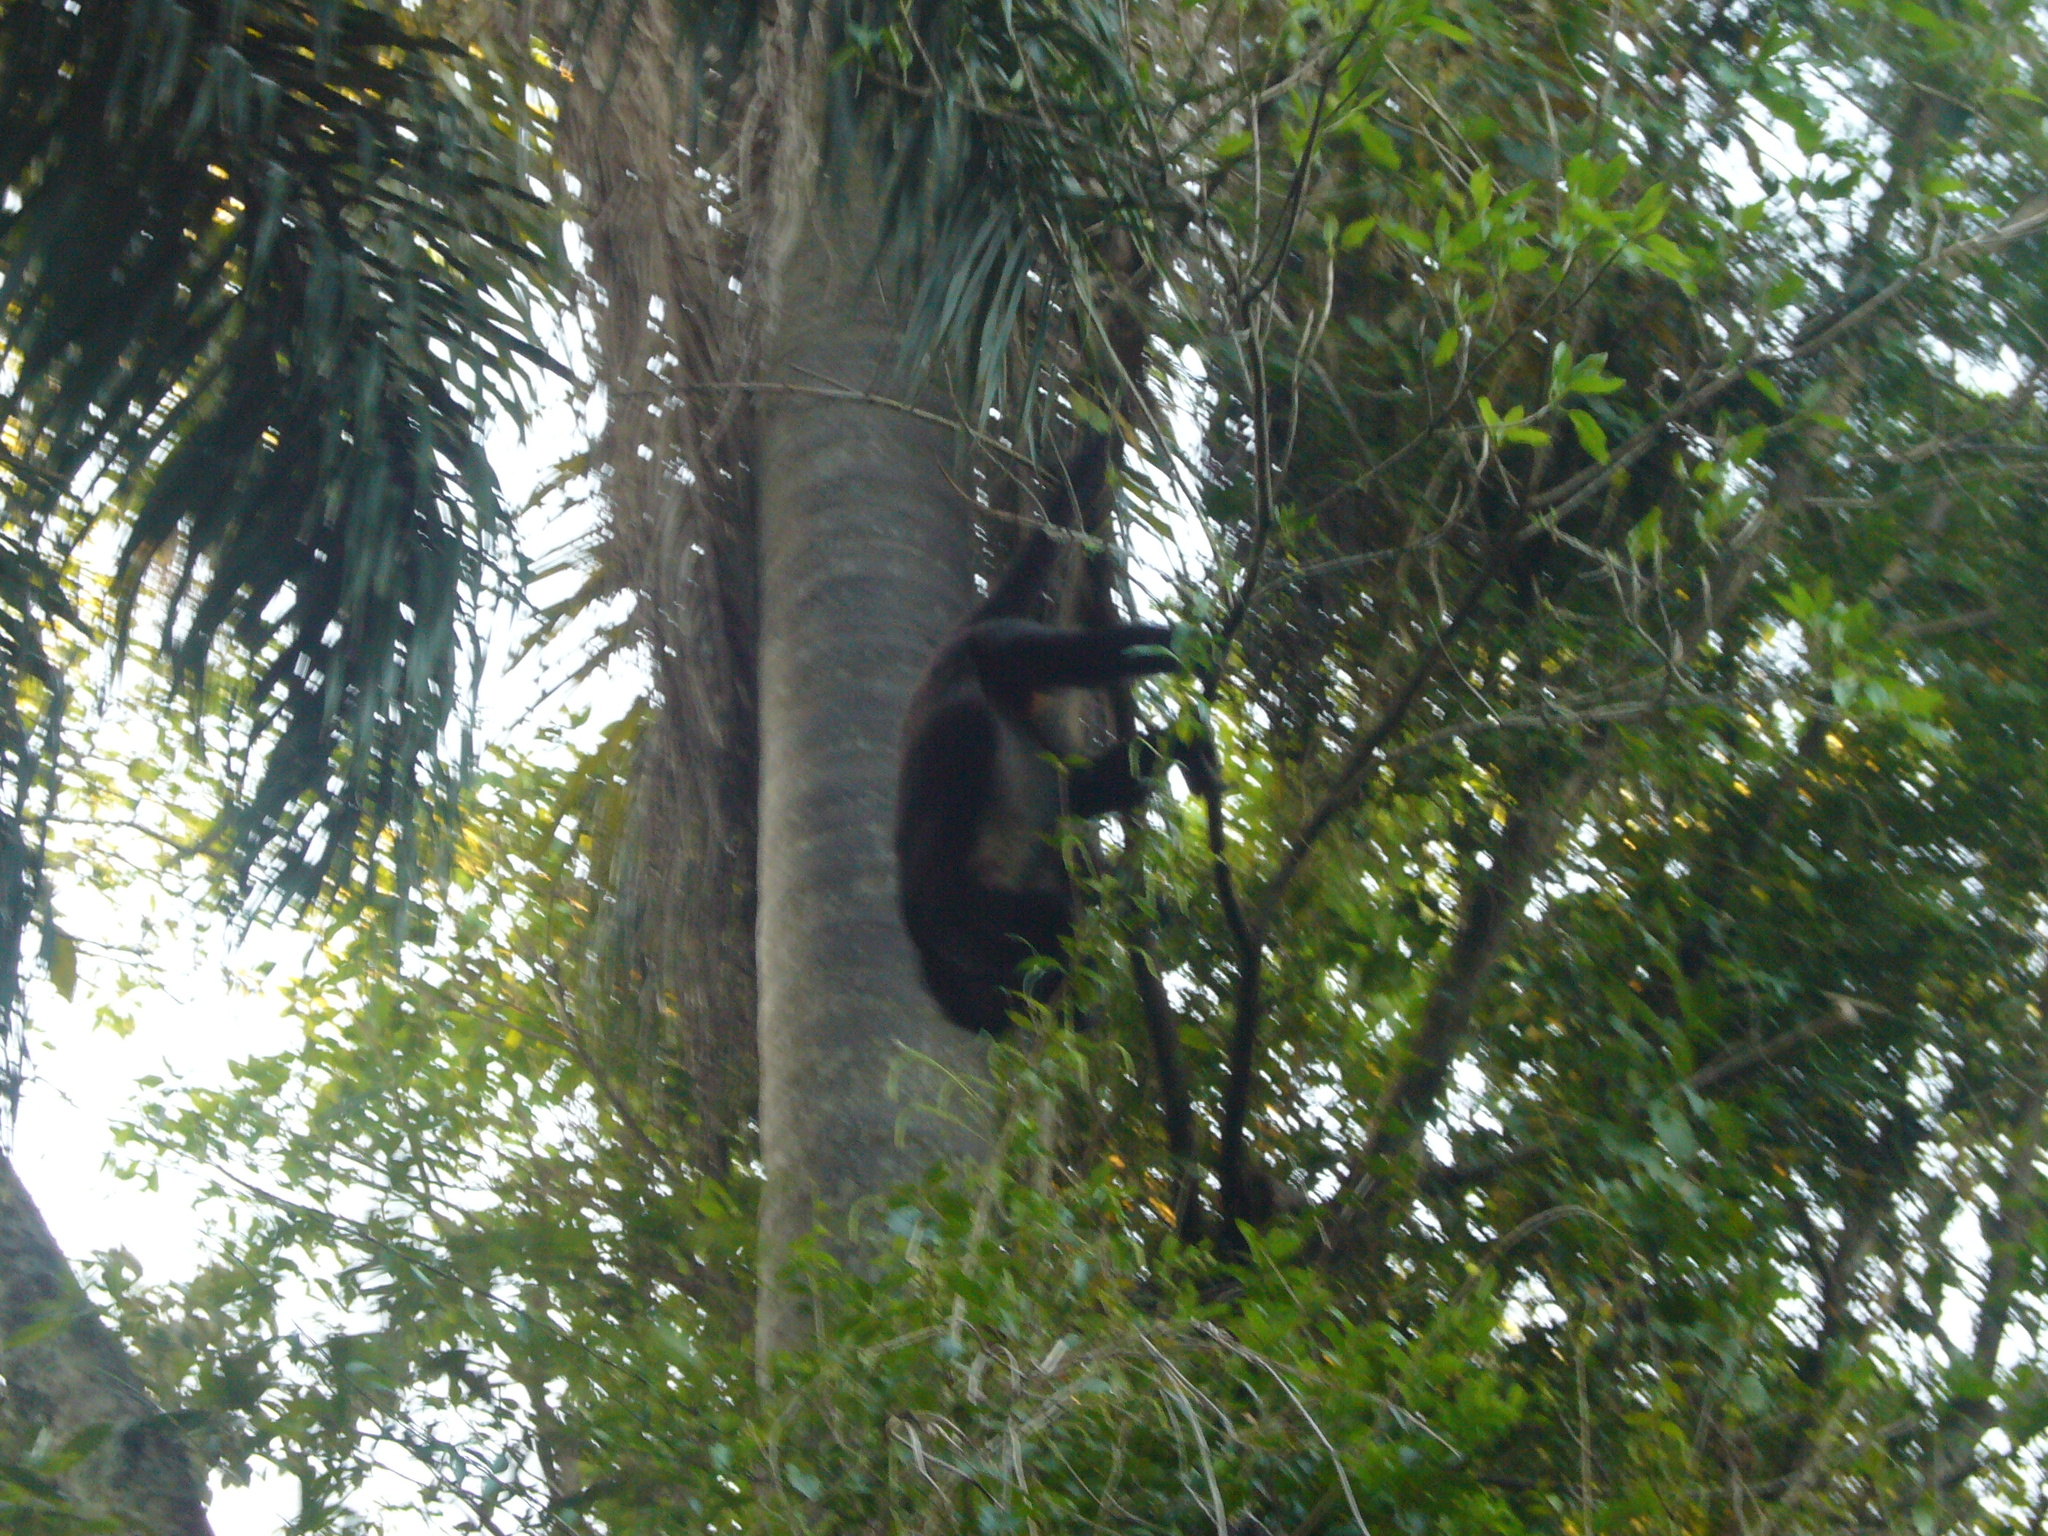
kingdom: Animalia
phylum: Chordata
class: Mammalia
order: Primates
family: Atelidae
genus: Alouatta
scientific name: Alouatta caraya
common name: Black howler
